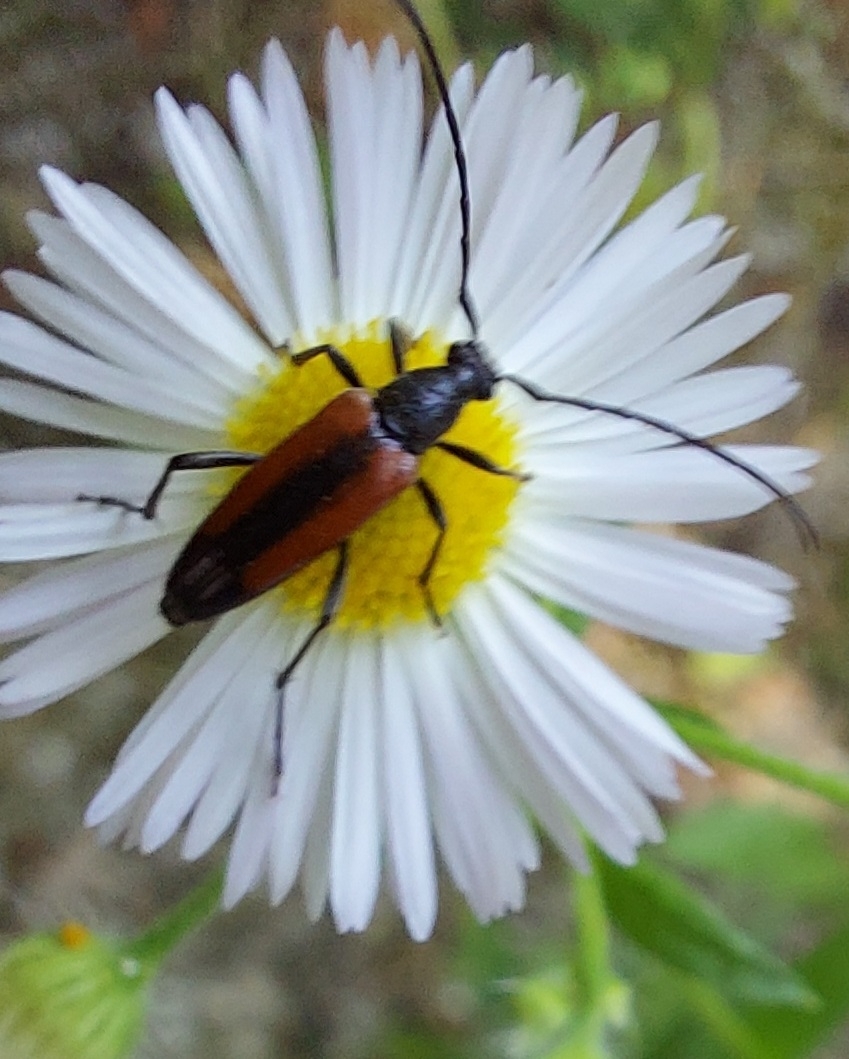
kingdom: Animalia
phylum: Arthropoda
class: Insecta
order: Coleoptera
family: Cerambycidae
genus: Stenurella
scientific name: Stenurella melanura
